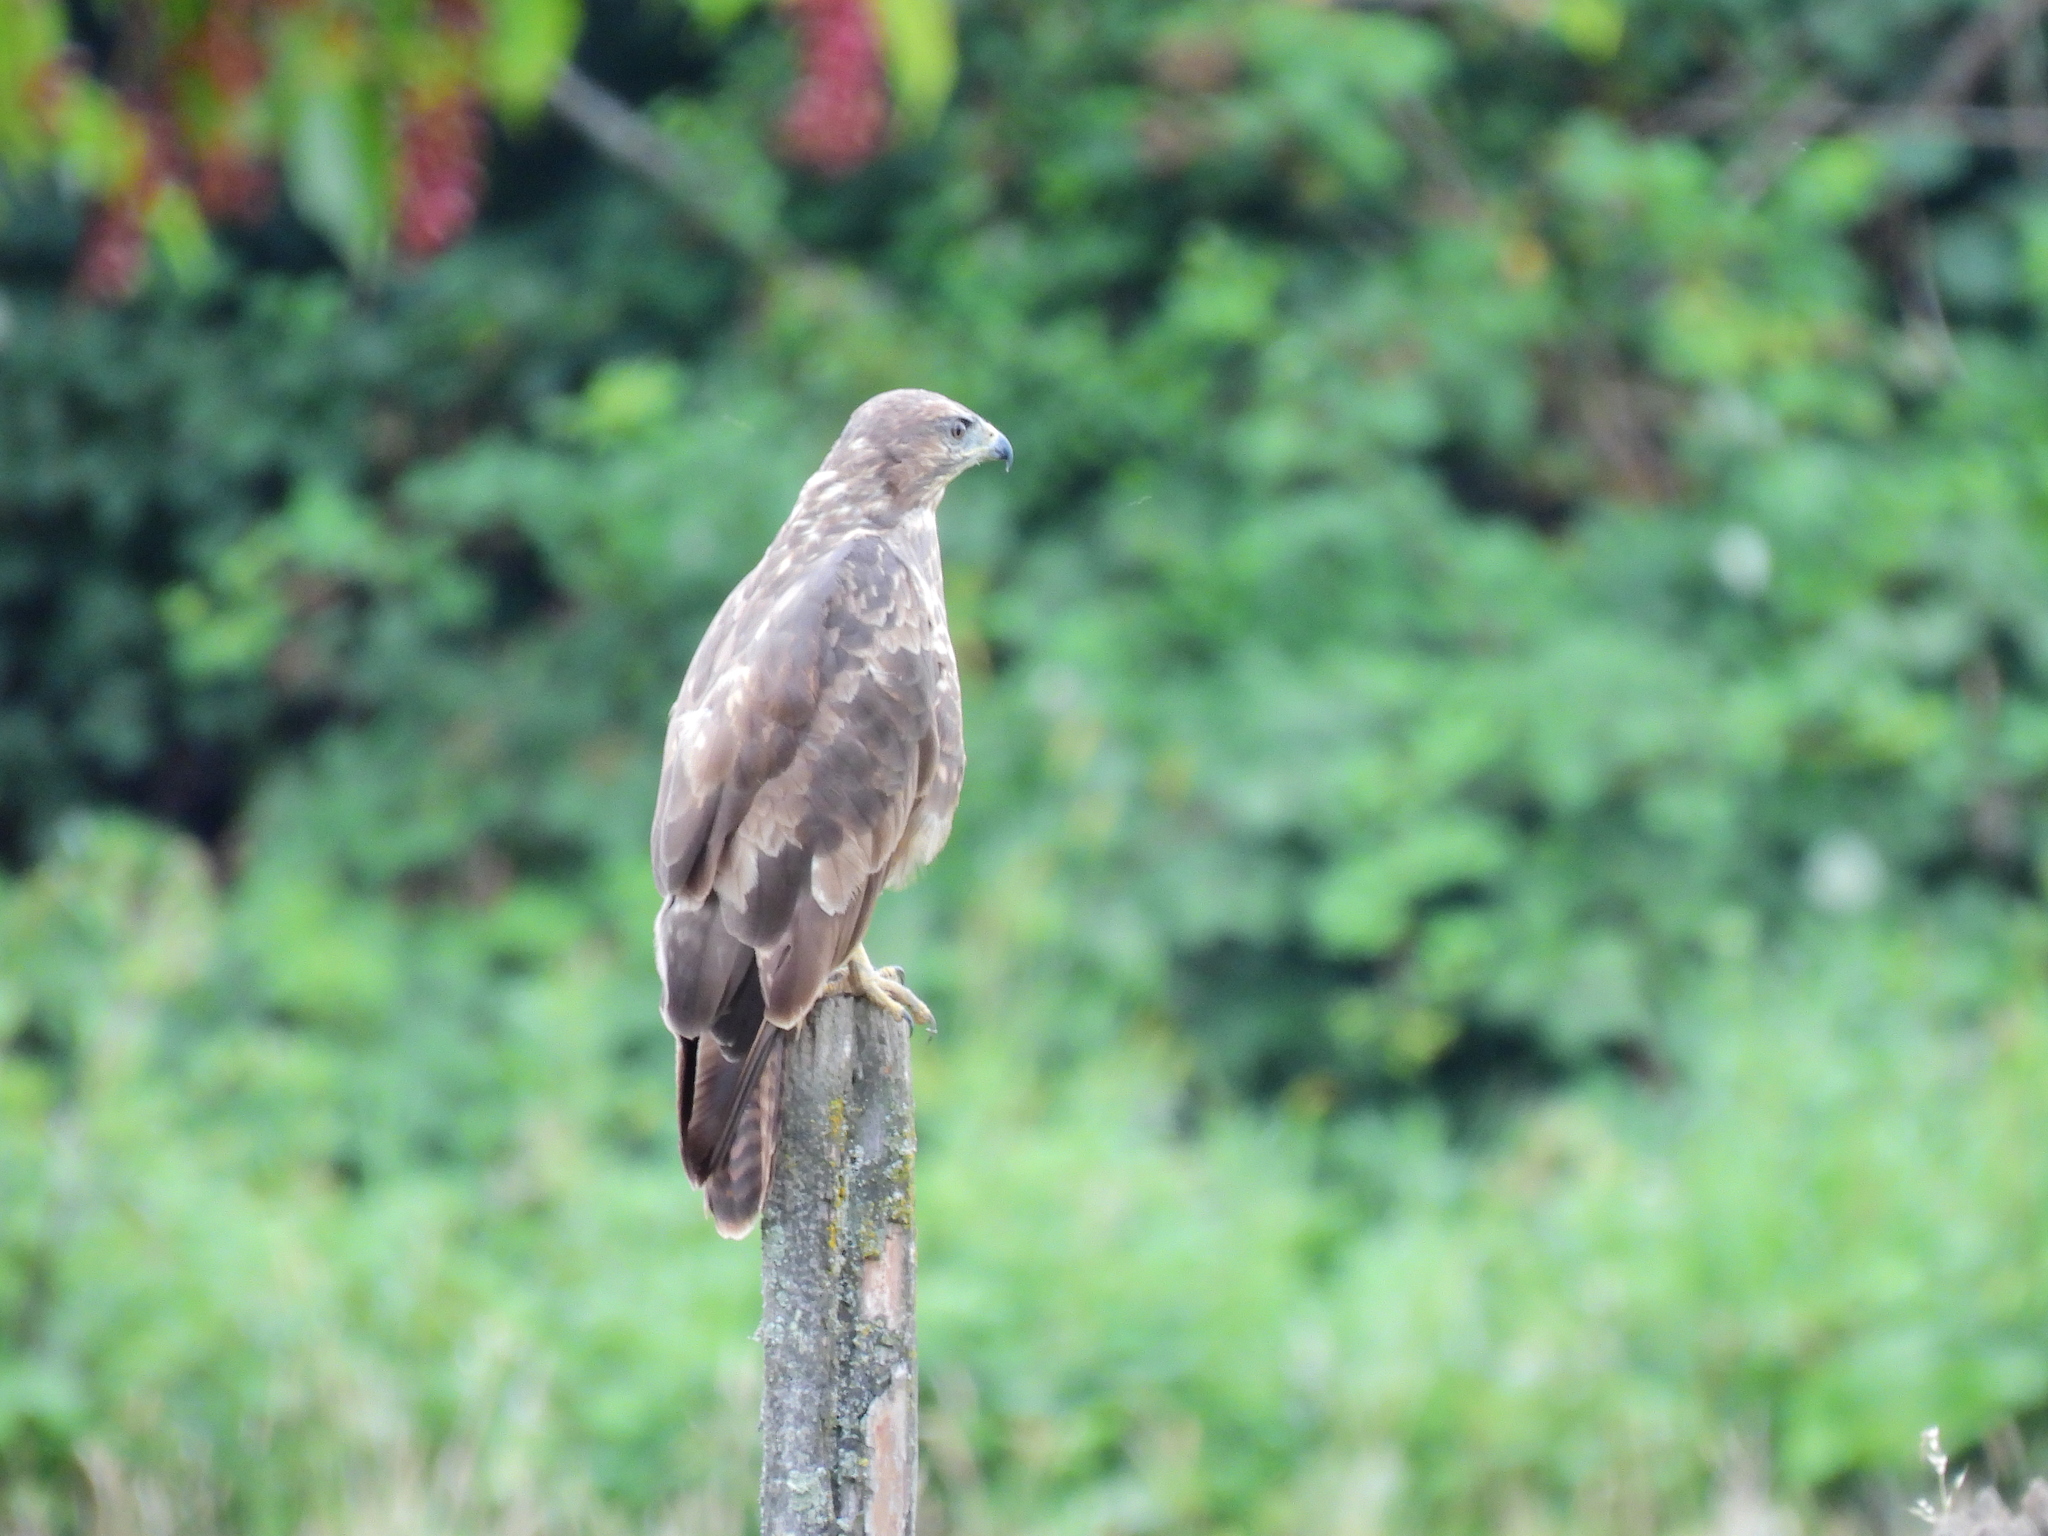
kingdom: Animalia
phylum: Chordata
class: Aves
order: Accipitriformes
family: Accipitridae
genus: Buteo
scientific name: Buteo buteo
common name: Common buzzard
